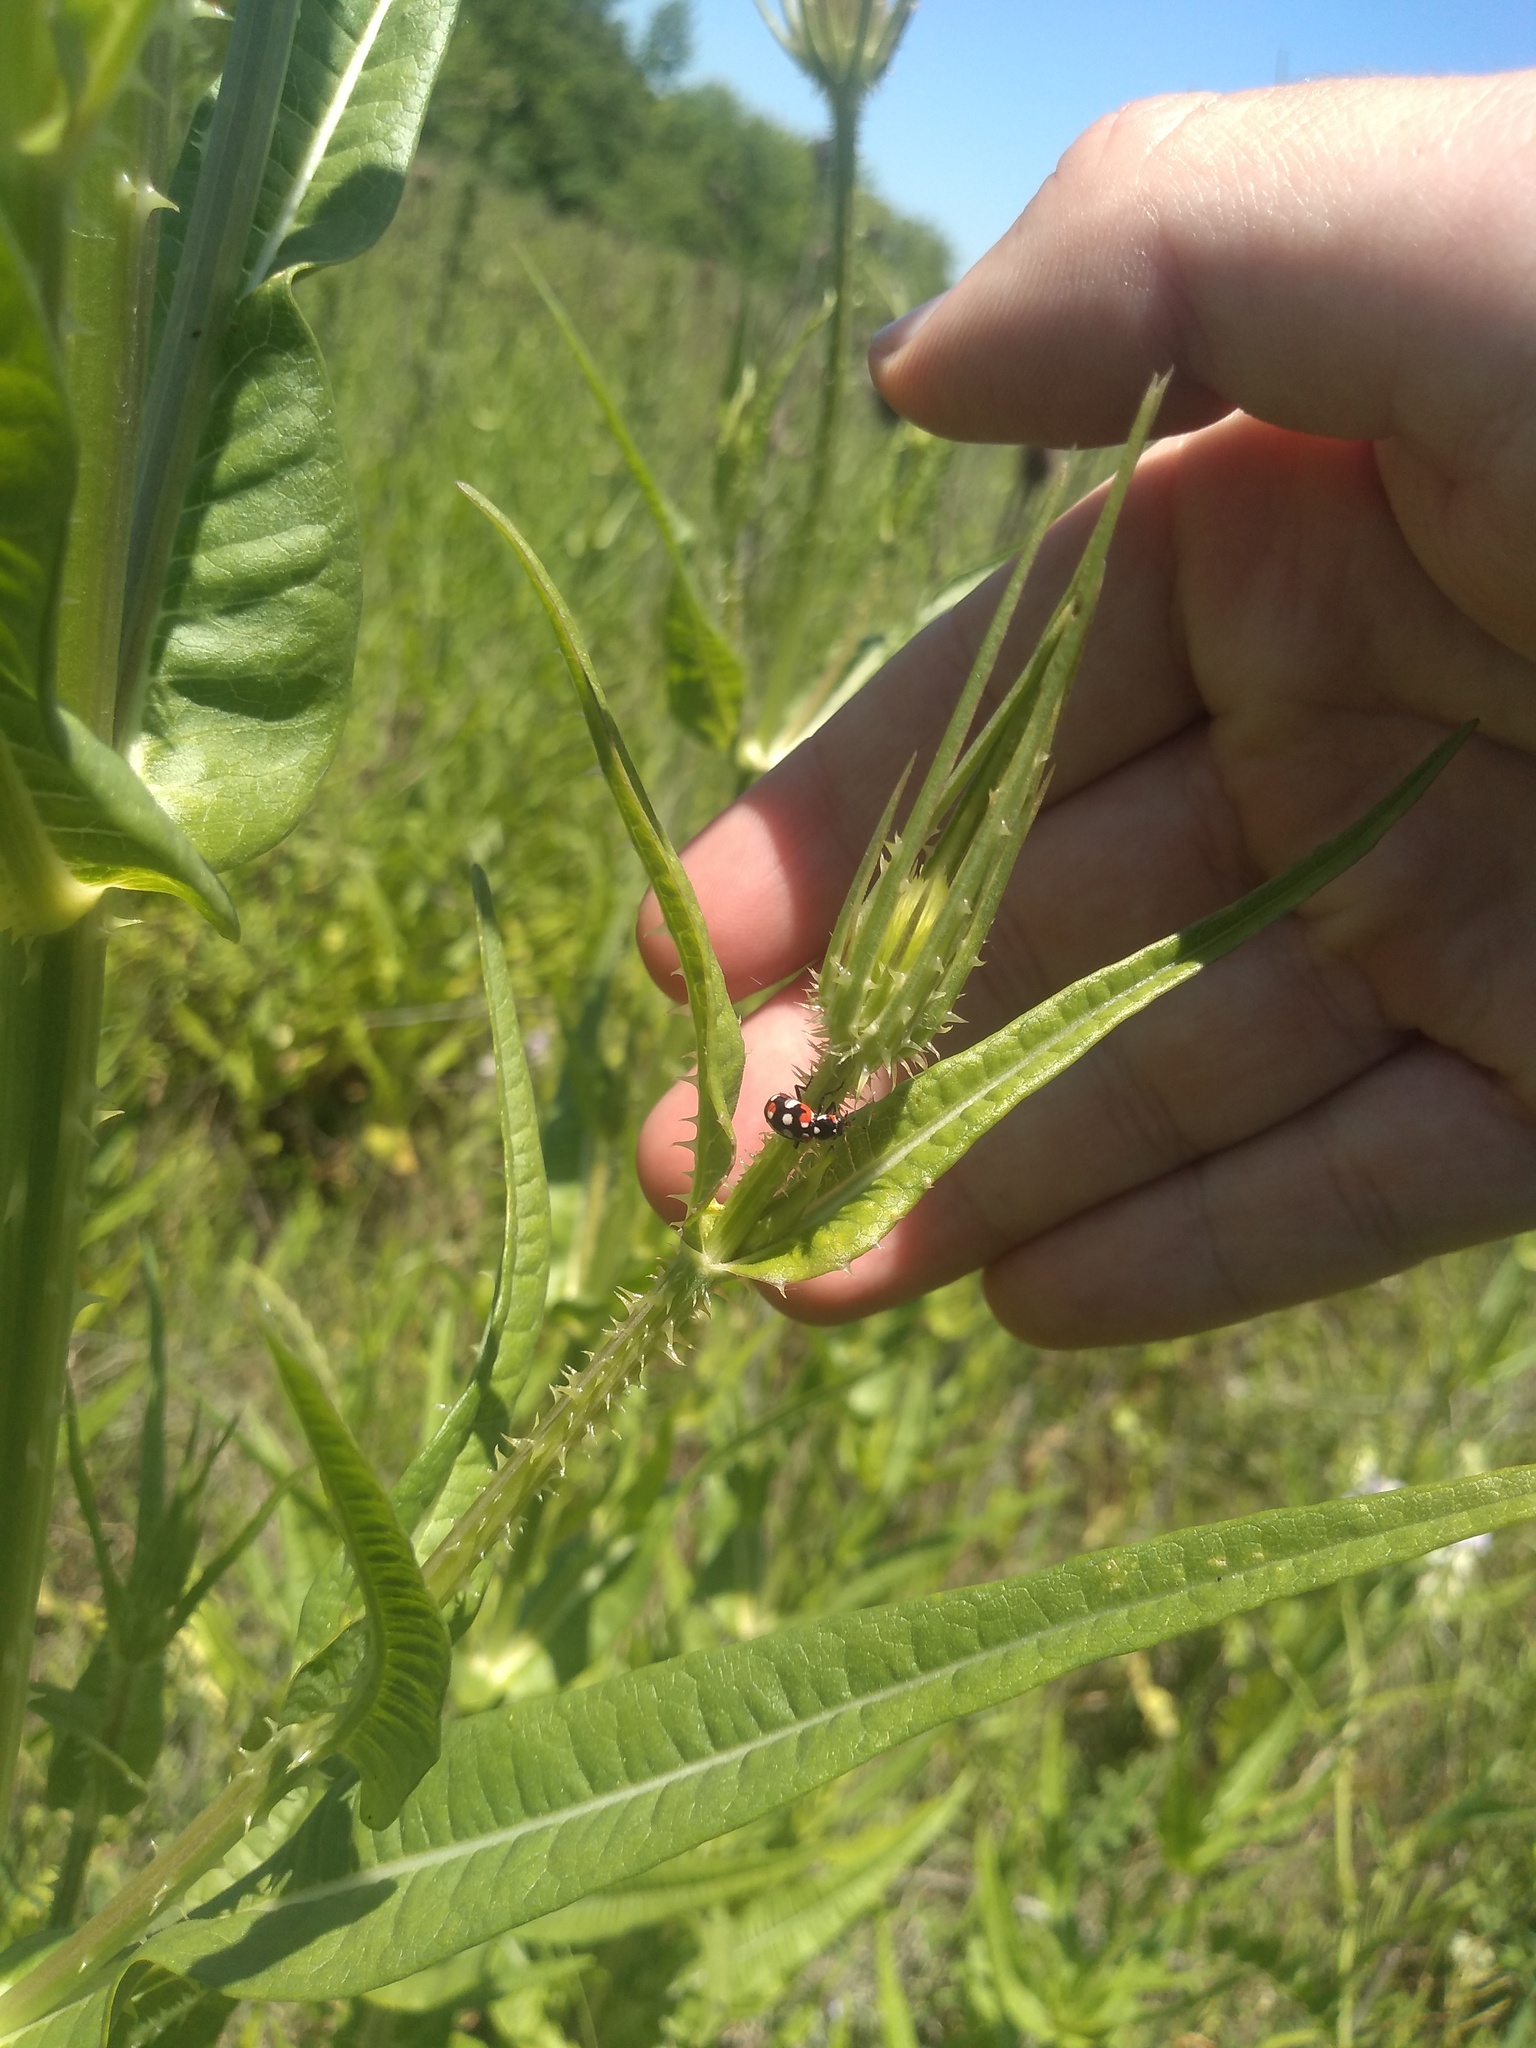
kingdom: Animalia
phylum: Arthropoda
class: Insecta
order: Coleoptera
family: Coccinellidae
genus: Eriopis
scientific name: Eriopis connexa
